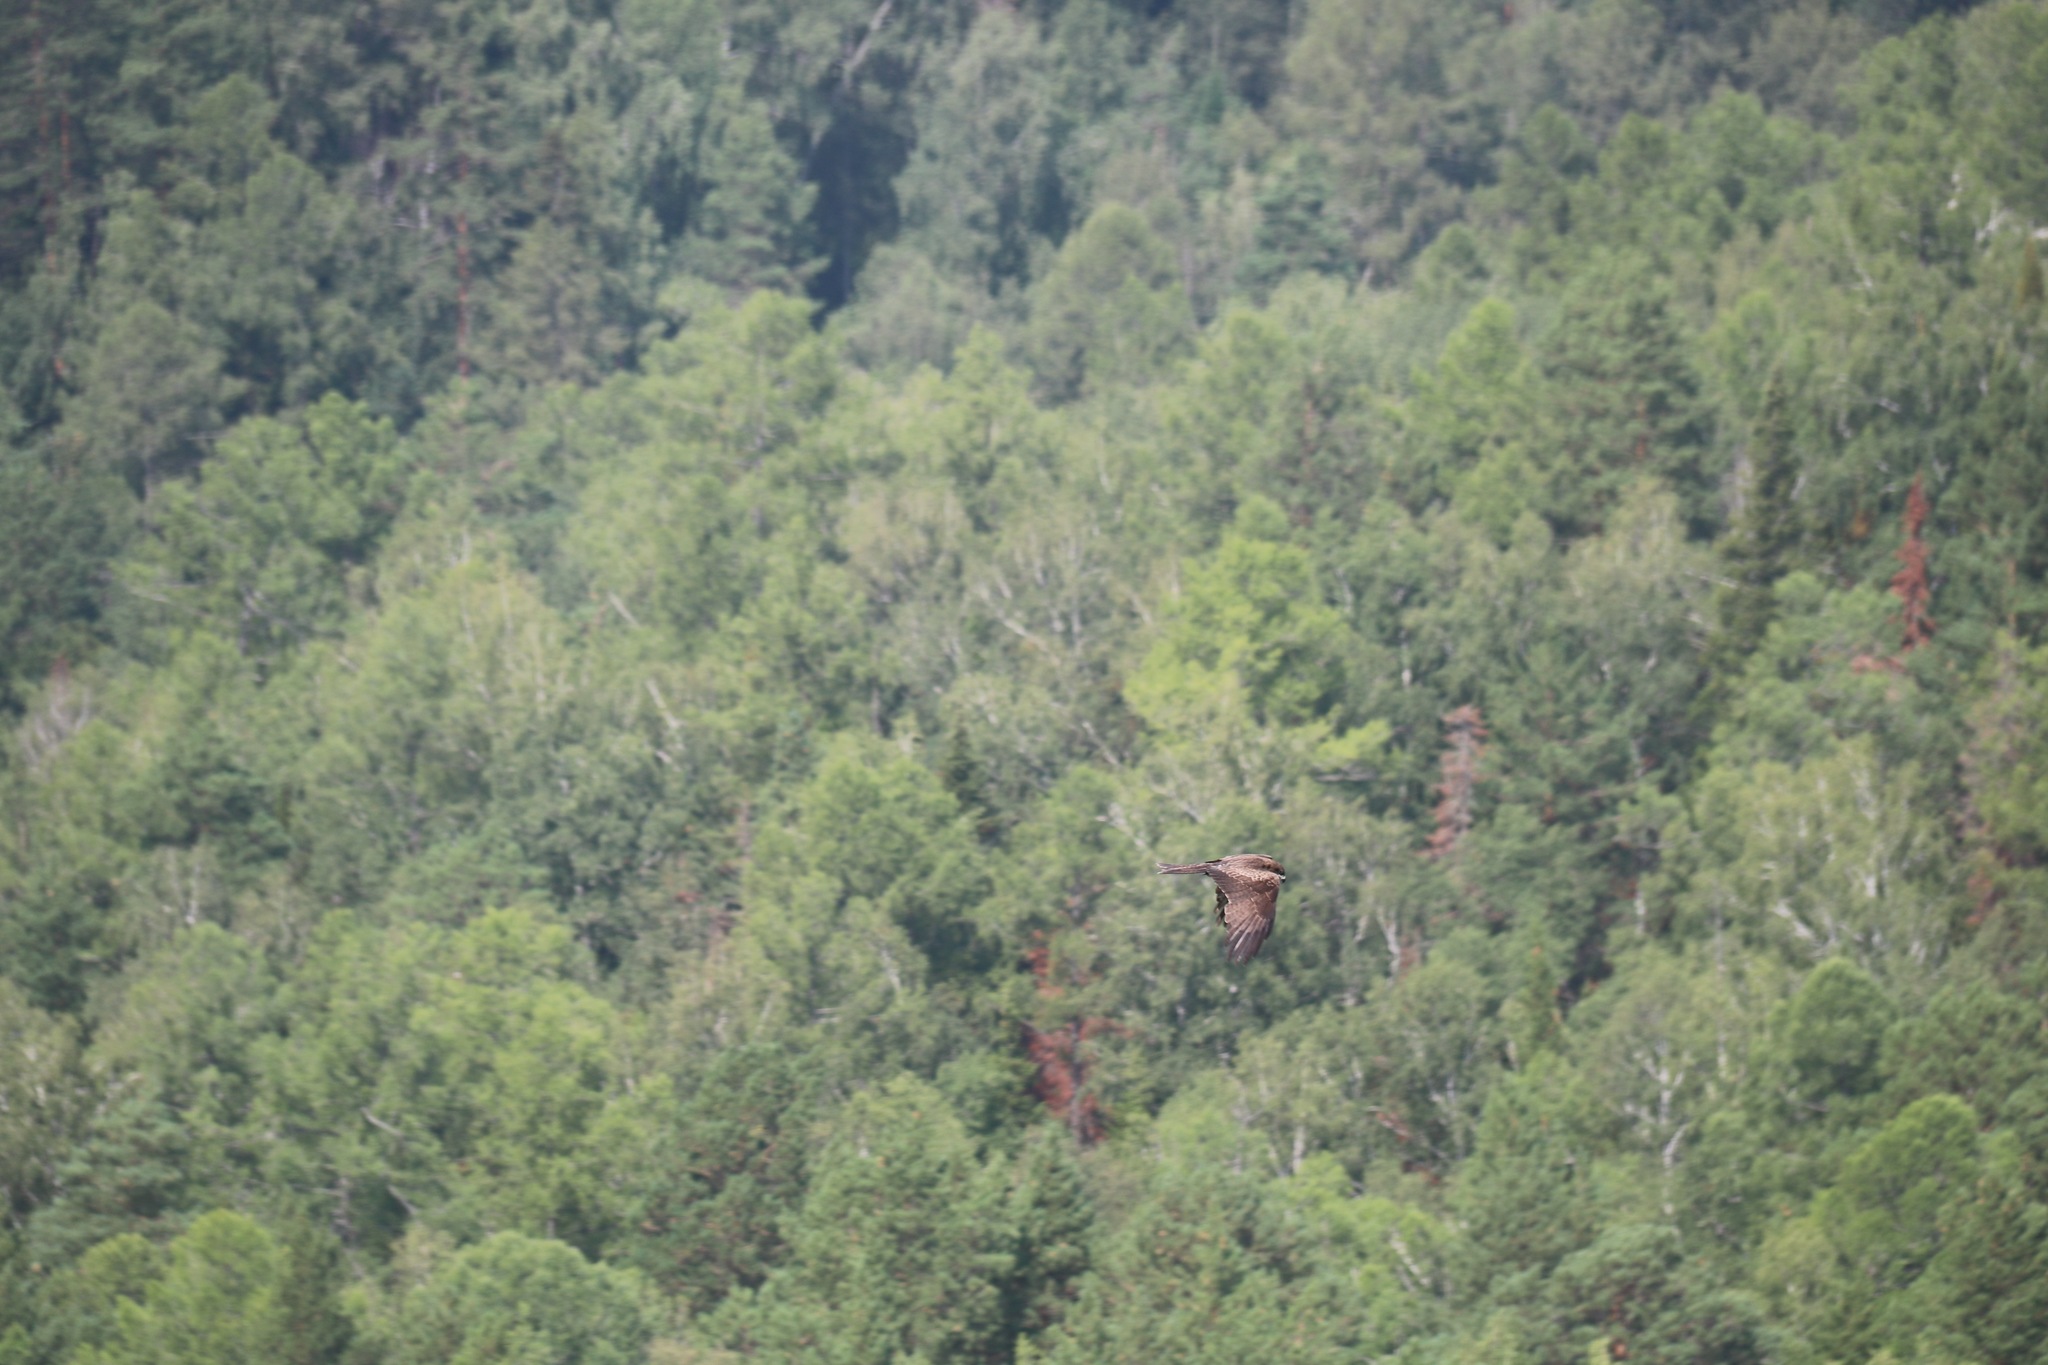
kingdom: Animalia
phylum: Chordata
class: Aves
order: Accipitriformes
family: Accipitridae
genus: Milvus
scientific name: Milvus migrans
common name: Black kite
